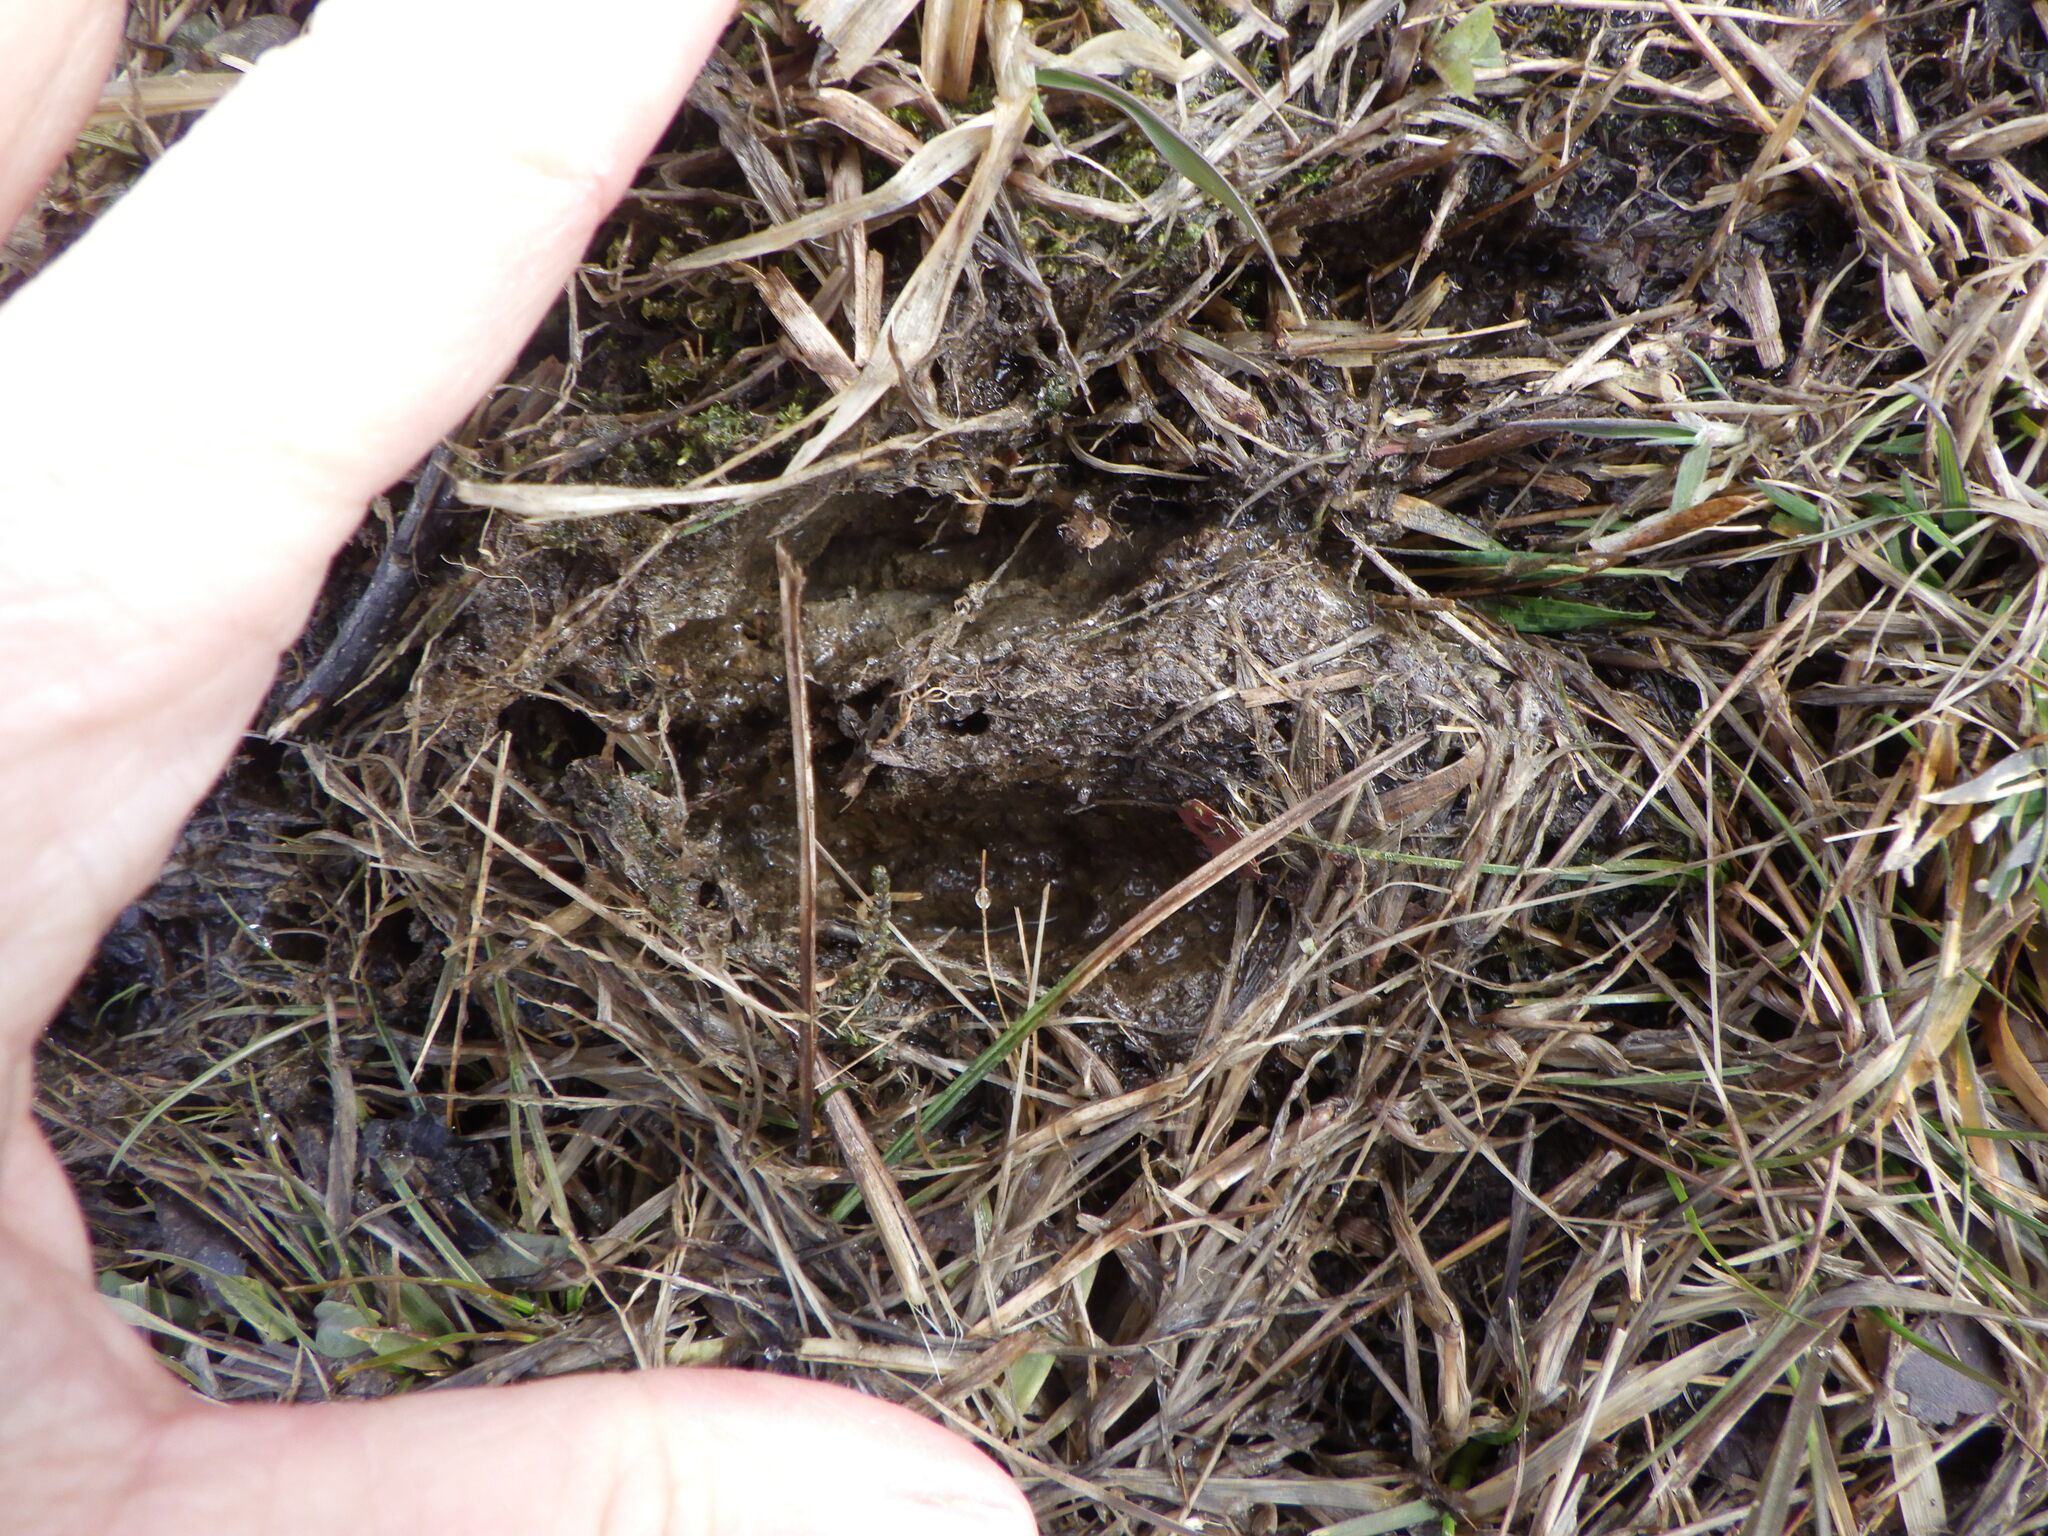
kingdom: Animalia
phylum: Chordata
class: Mammalia
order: Artiodactyla
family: Cervidae
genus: Odocoileus
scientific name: Odocoileus virginianus
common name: White-tailed deer
